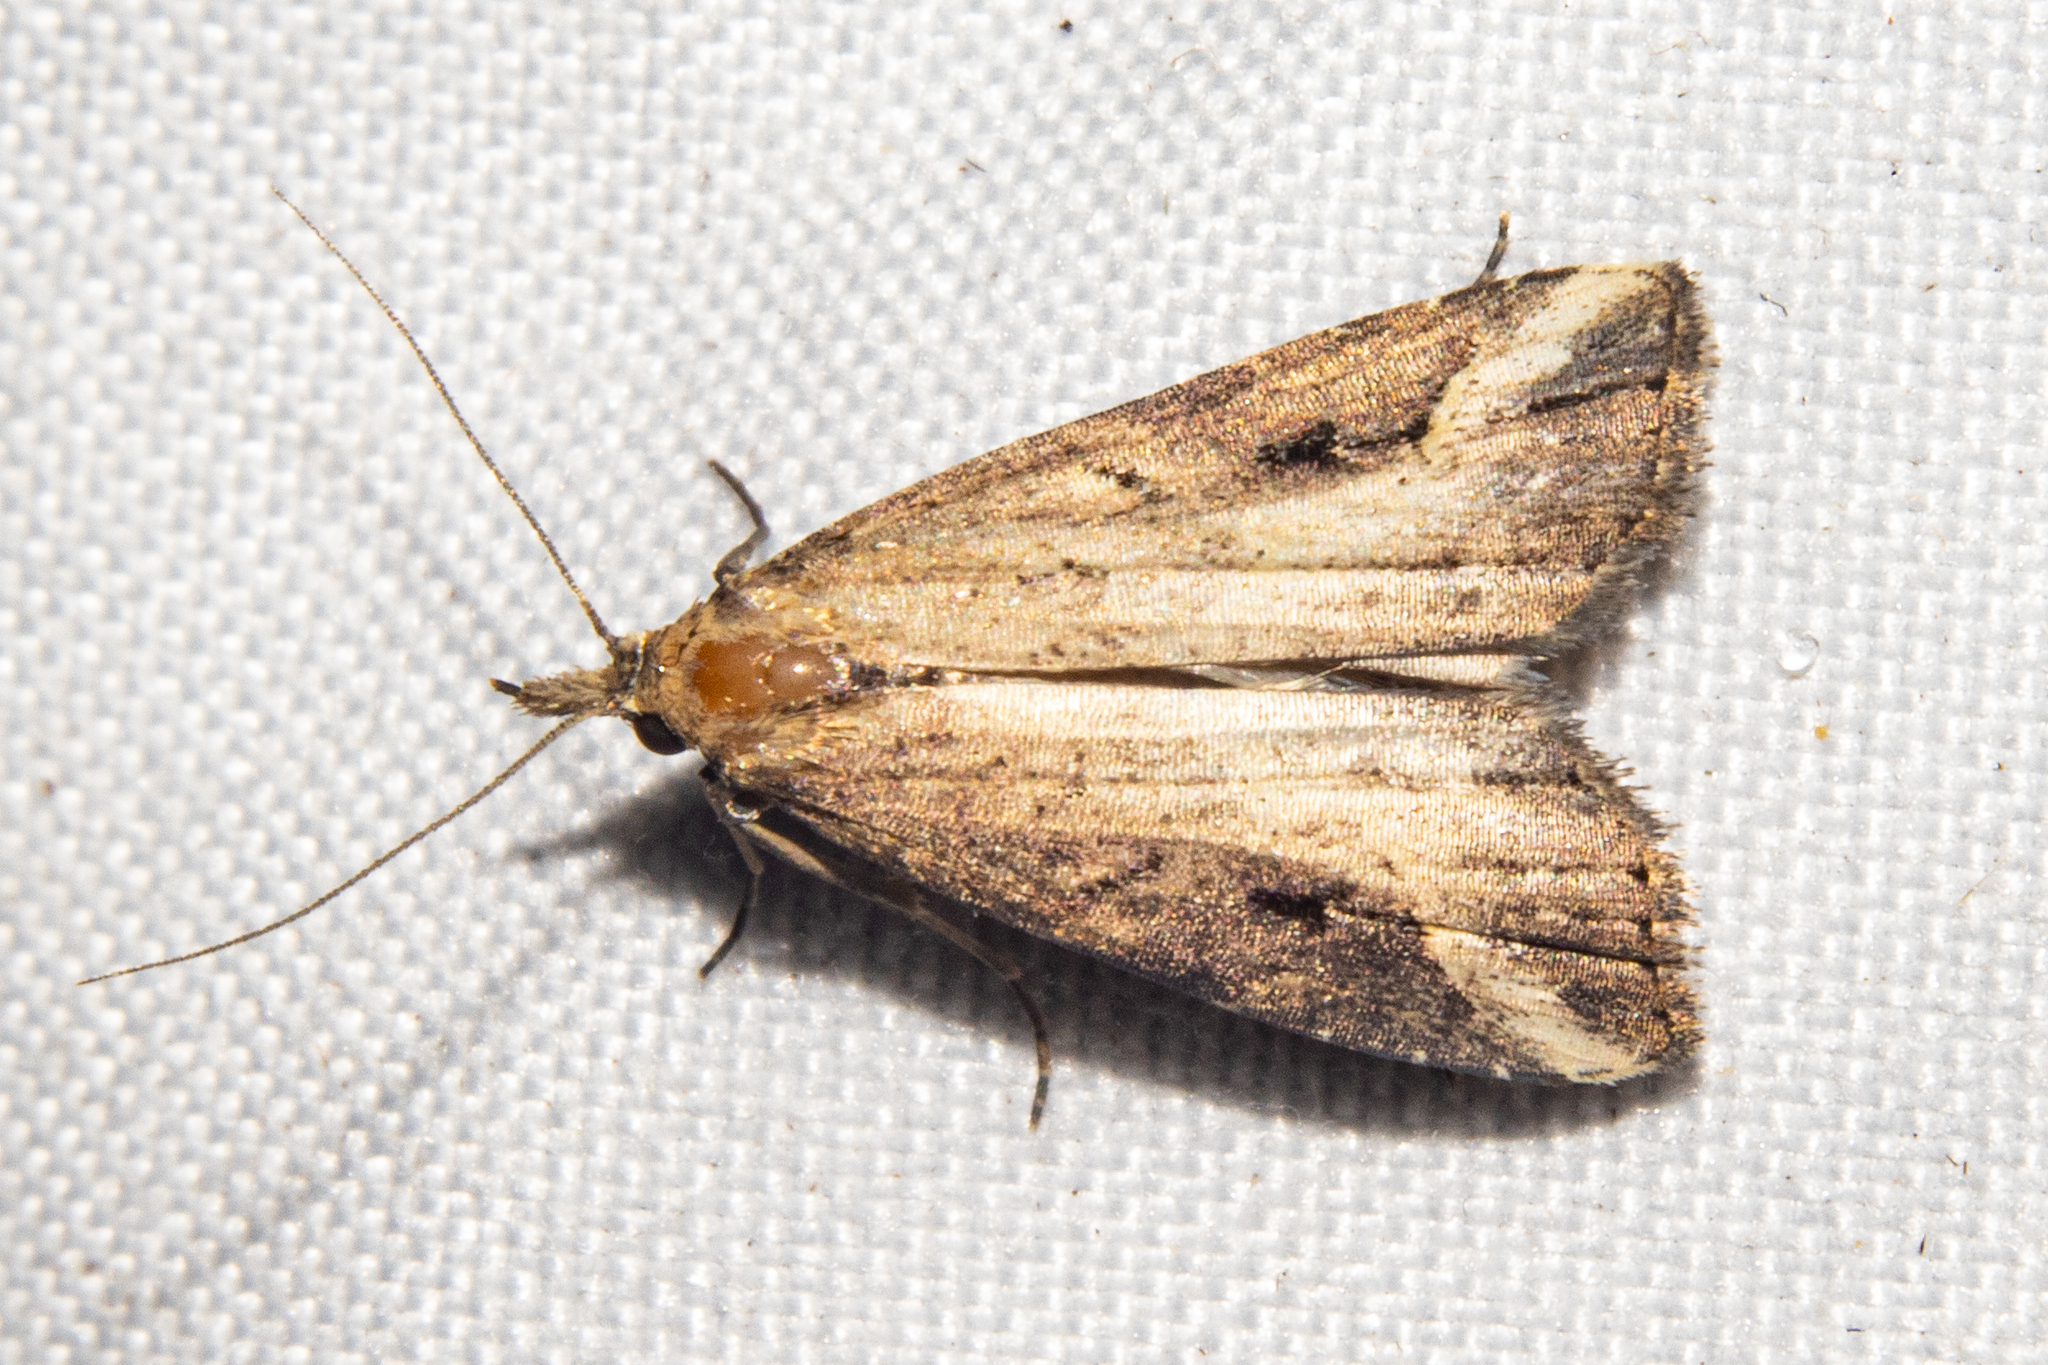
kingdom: Animalia
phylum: Arthropoda
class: Insecta
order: Lepidoptera
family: Erebidae
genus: Schrankia
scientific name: Schrankia costaestrigalis
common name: Pinion-streaked snout
